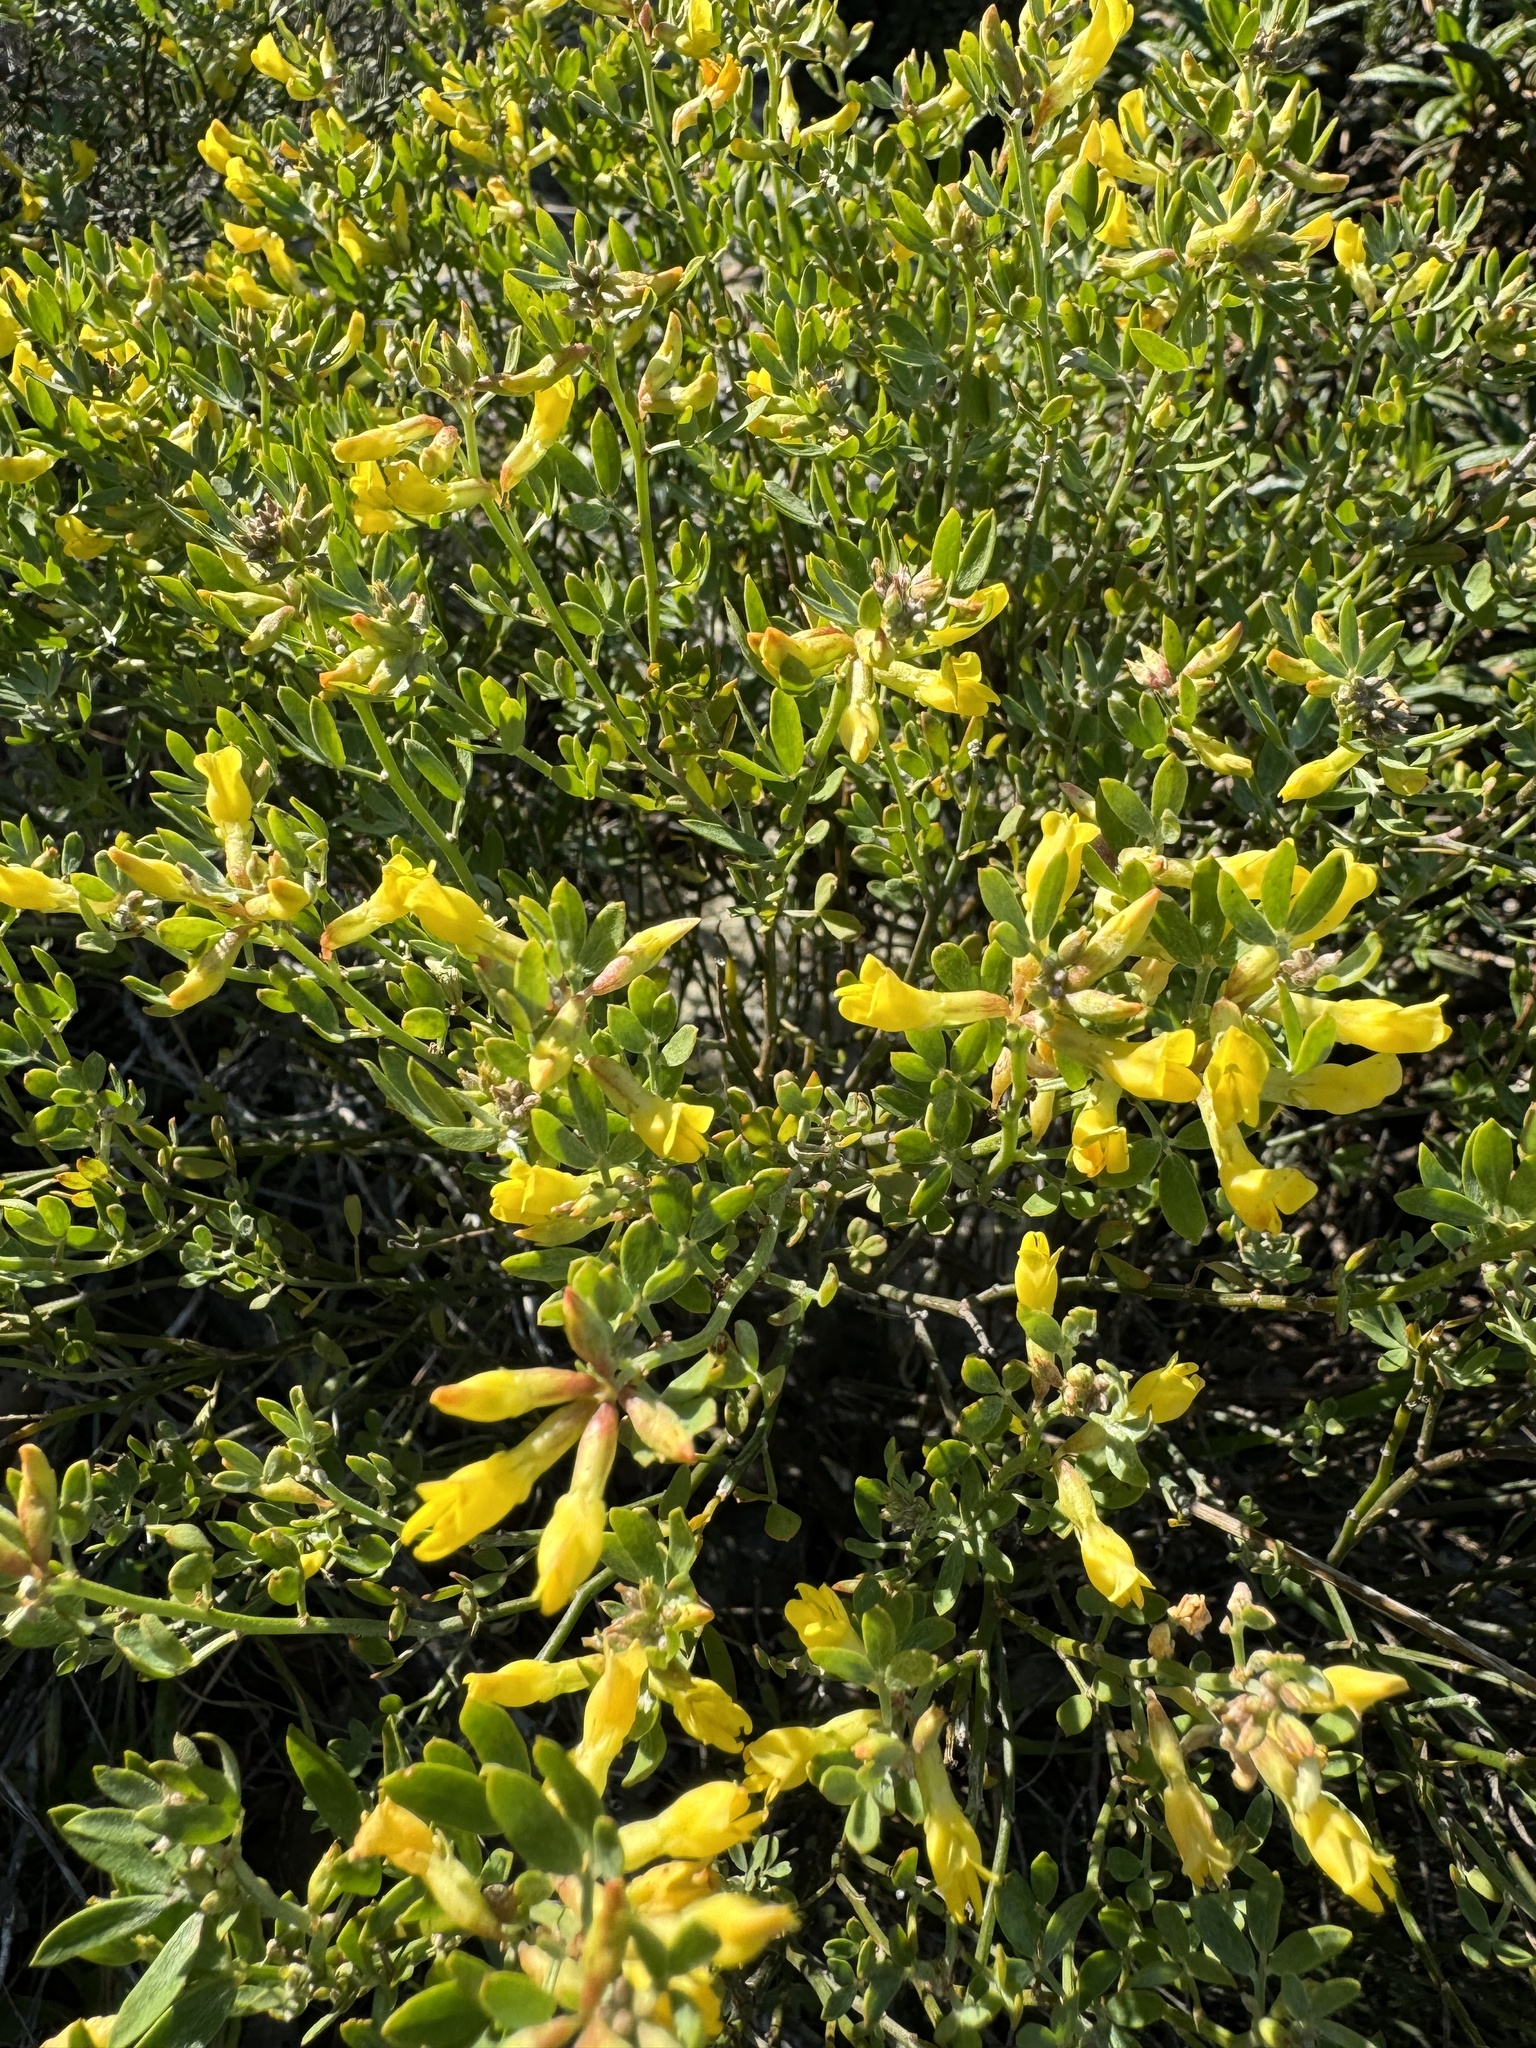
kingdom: Plantae
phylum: Tracheophyta
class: Magnoliopsida
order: Fabales
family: Fabaceae
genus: Acmispon
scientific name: Acmispon dendroideus
